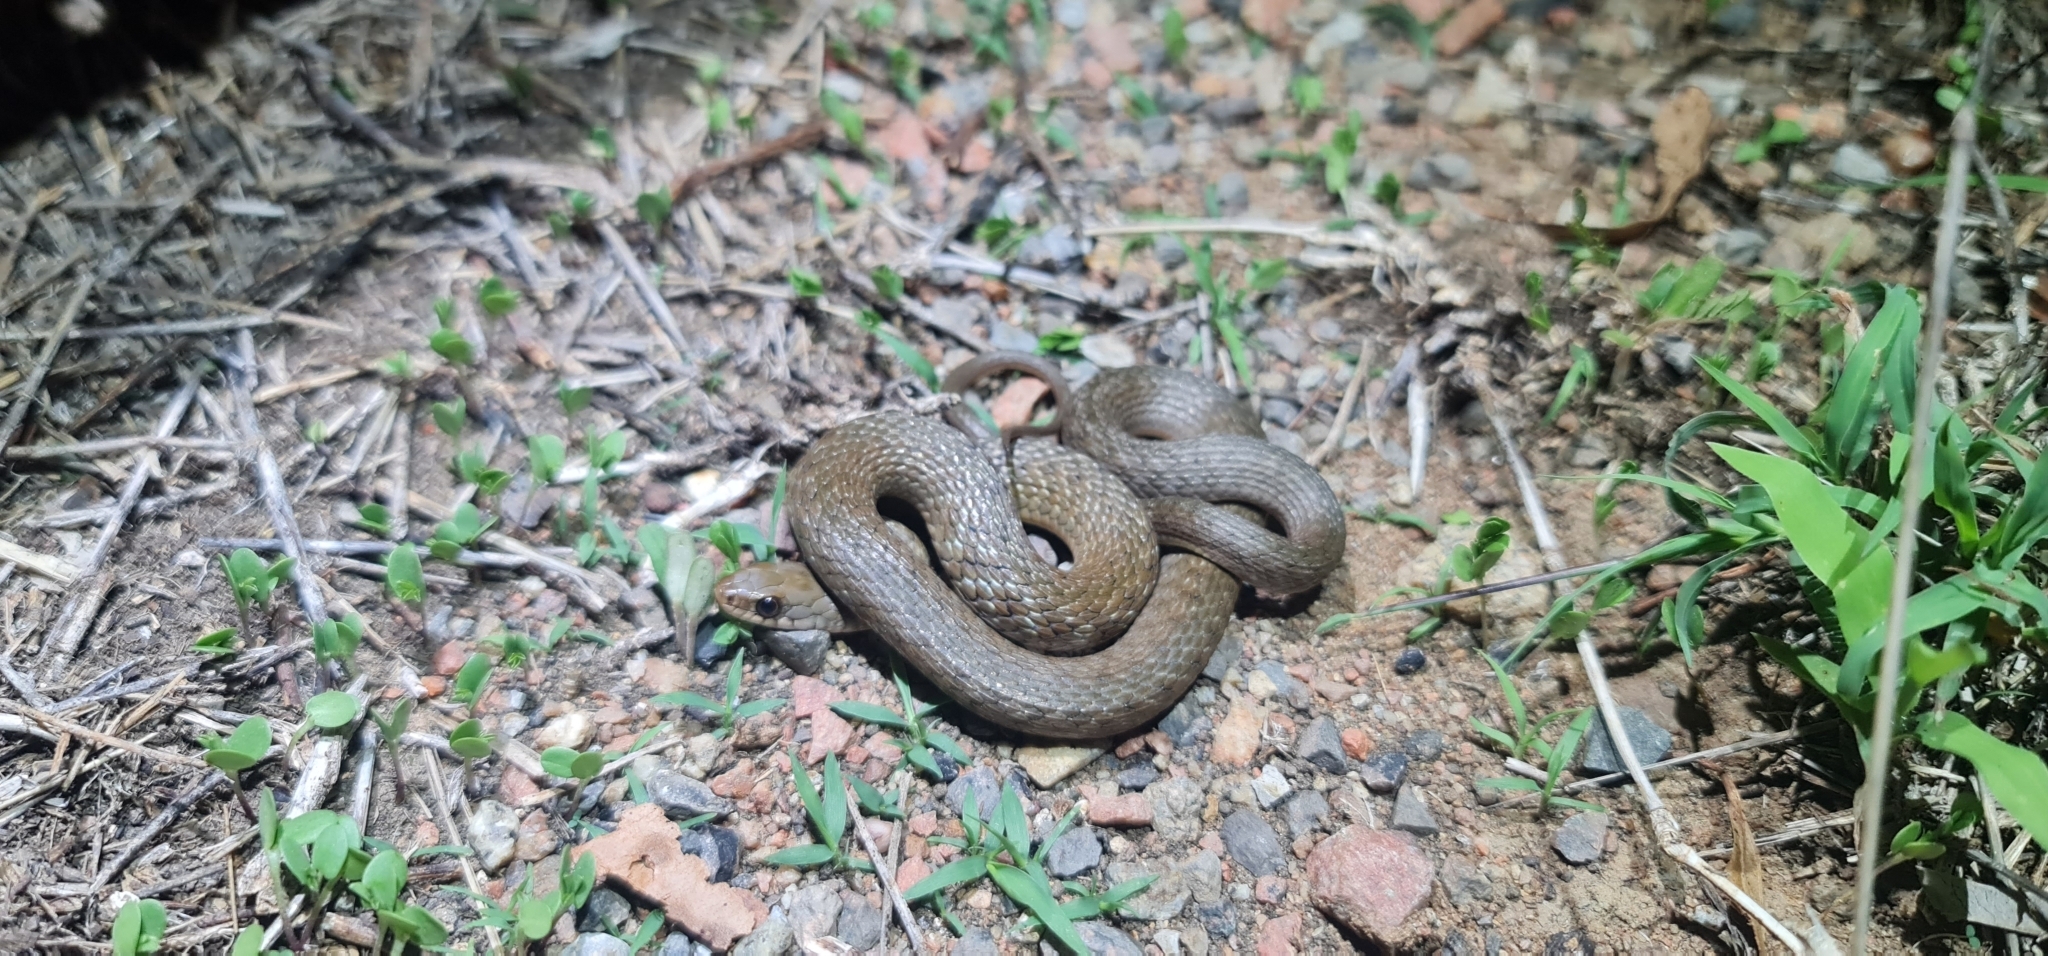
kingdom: Animalia
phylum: Chordata
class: Squamata
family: Colubridae
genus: Tropidonophis
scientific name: Tropidonophis mairii
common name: Common keelback
